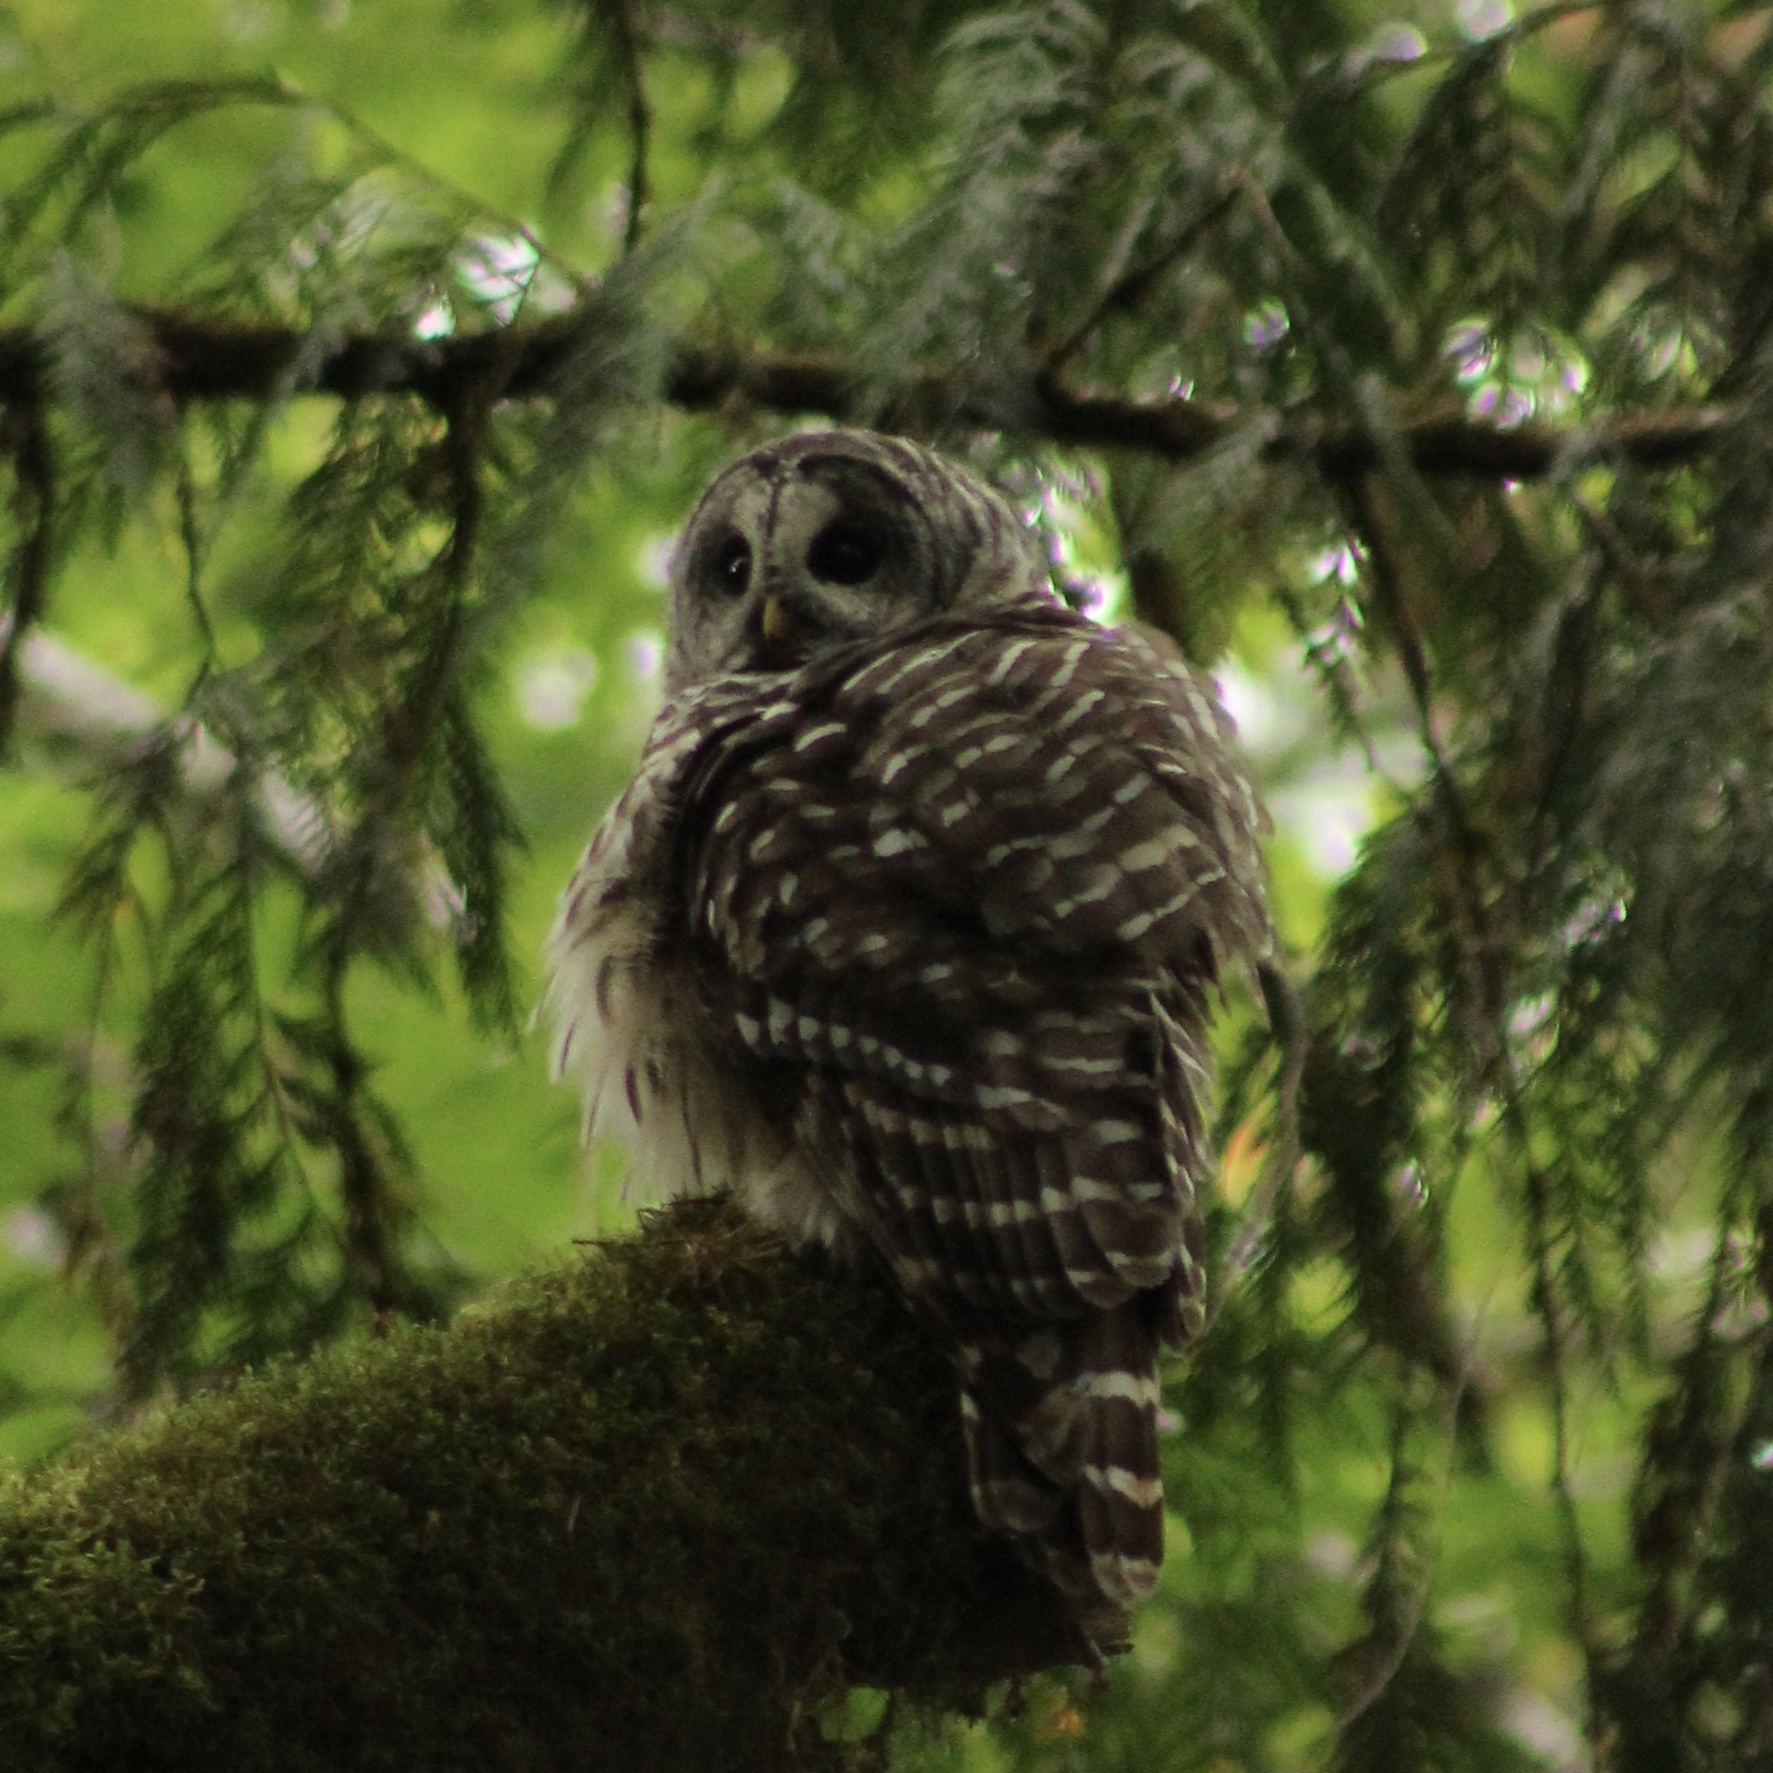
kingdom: Animalia
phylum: Chordata
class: Aves
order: Strigiformes
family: Strigidae
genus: Strix
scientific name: Strix varia
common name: Barred owl
